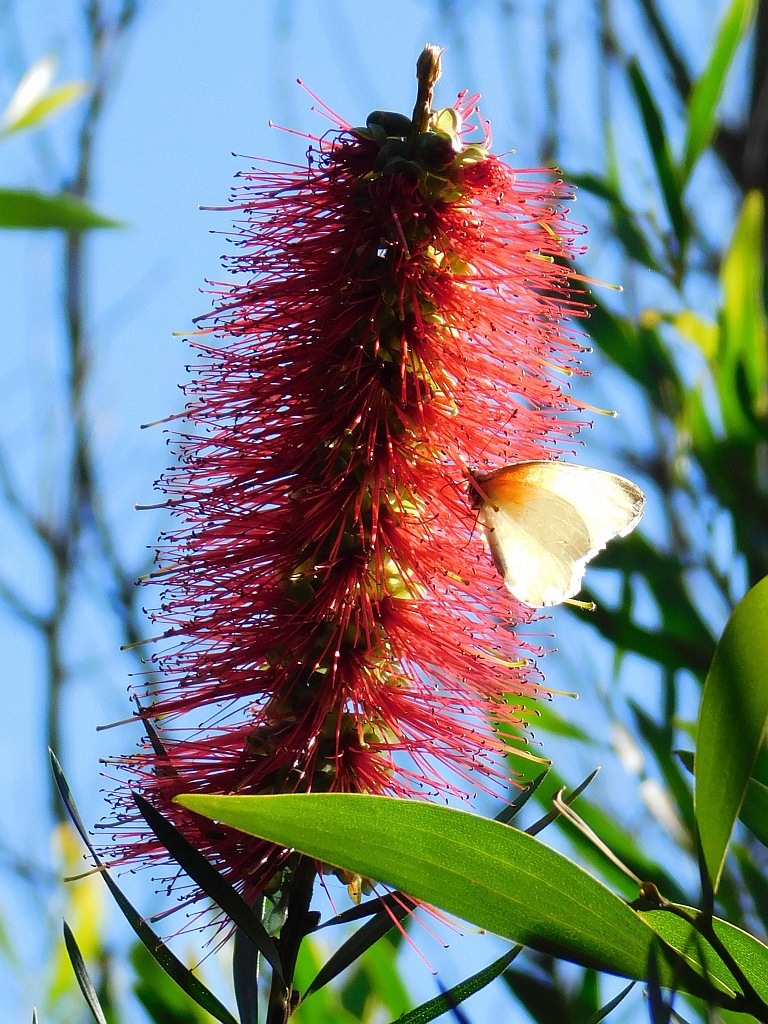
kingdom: Plantae
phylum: Tracheophyta
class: Magnoliopsida
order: Myrtales
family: Myrtaceae
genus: Callistemon
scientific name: Callistemon linearis
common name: Narrow-leaf bottlebrush
